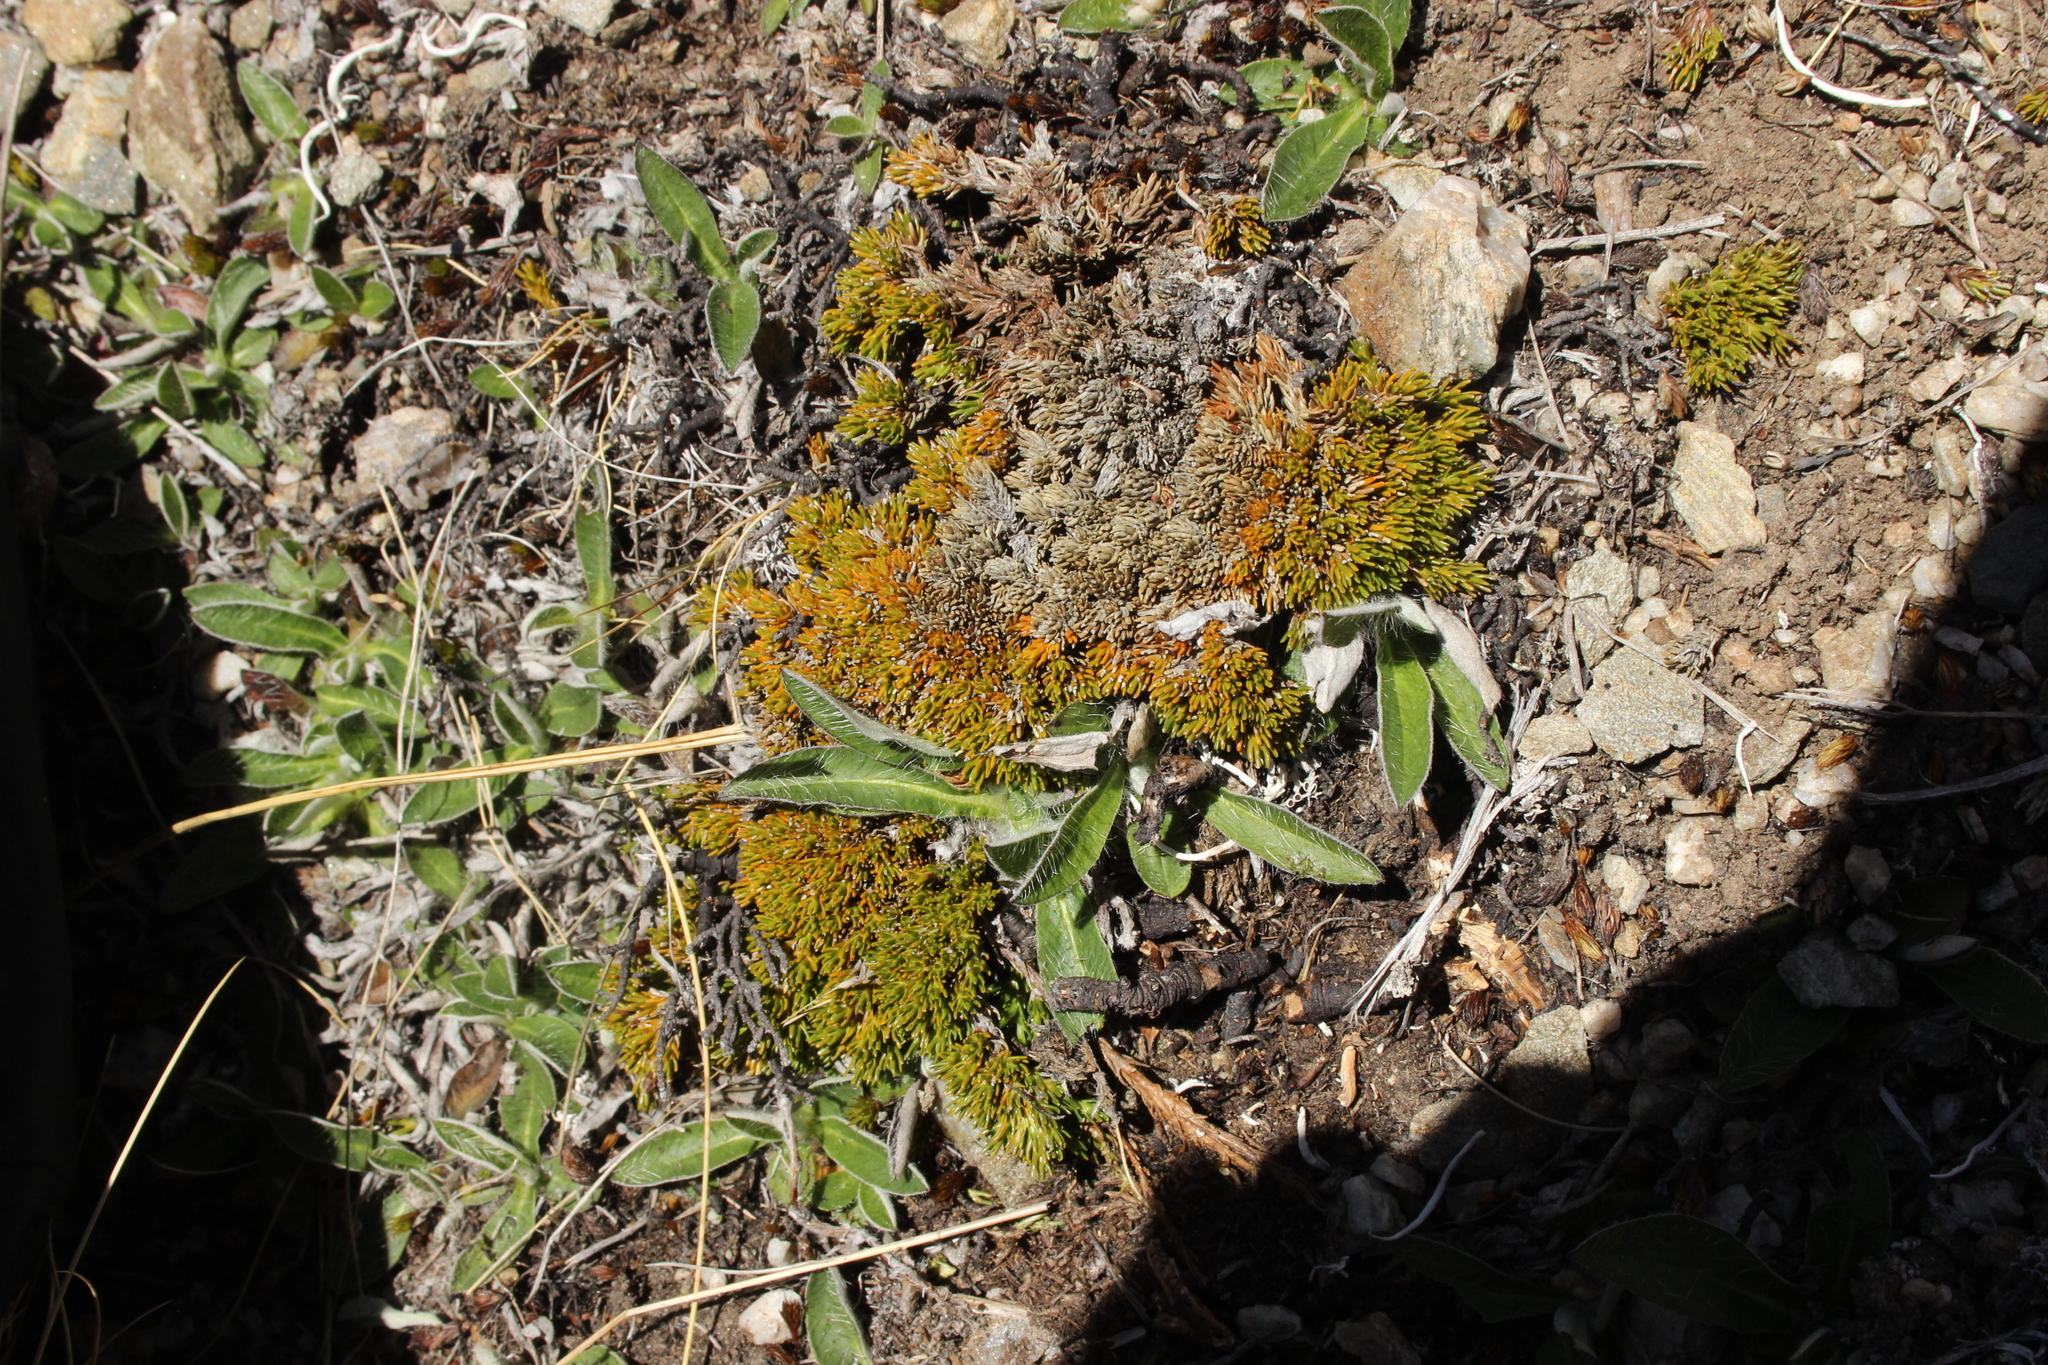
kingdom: Plantae
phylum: Tracheophyta
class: Magnoliopsida
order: Ericales
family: Ericaceae
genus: Dracophyllum
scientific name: Dracophyllum muscoides
